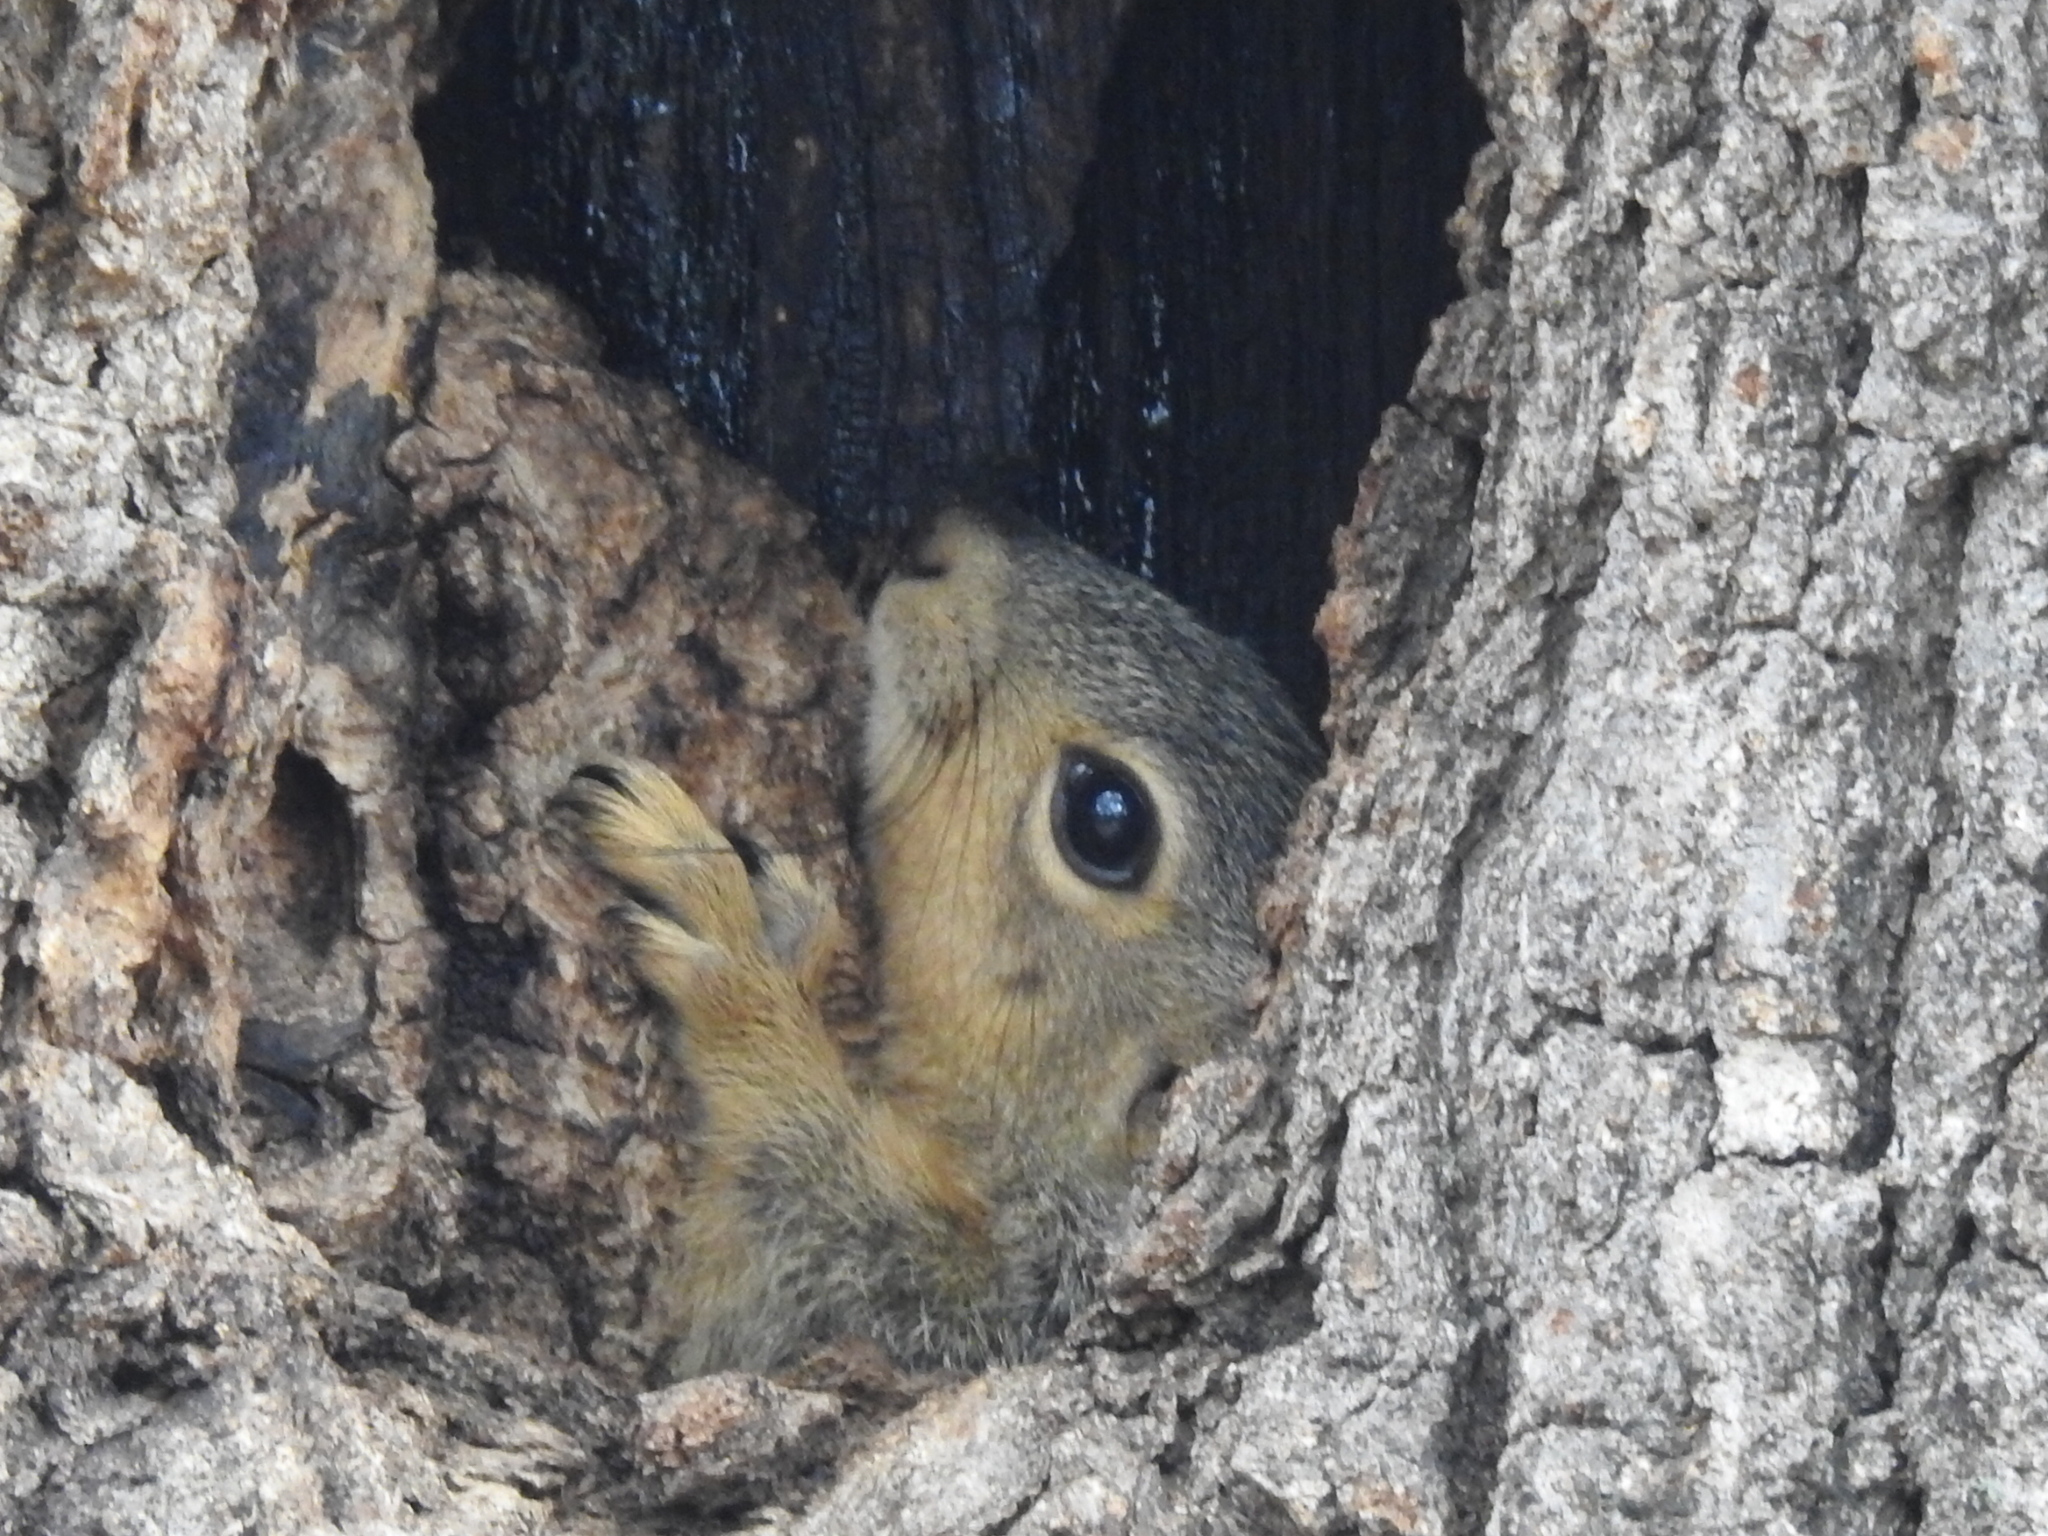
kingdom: Animalia
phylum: Chordata
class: Mammalia
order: Rodentia
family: Sciuridae
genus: Sciurus
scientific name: Sciurus niger
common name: Fox squirrel
